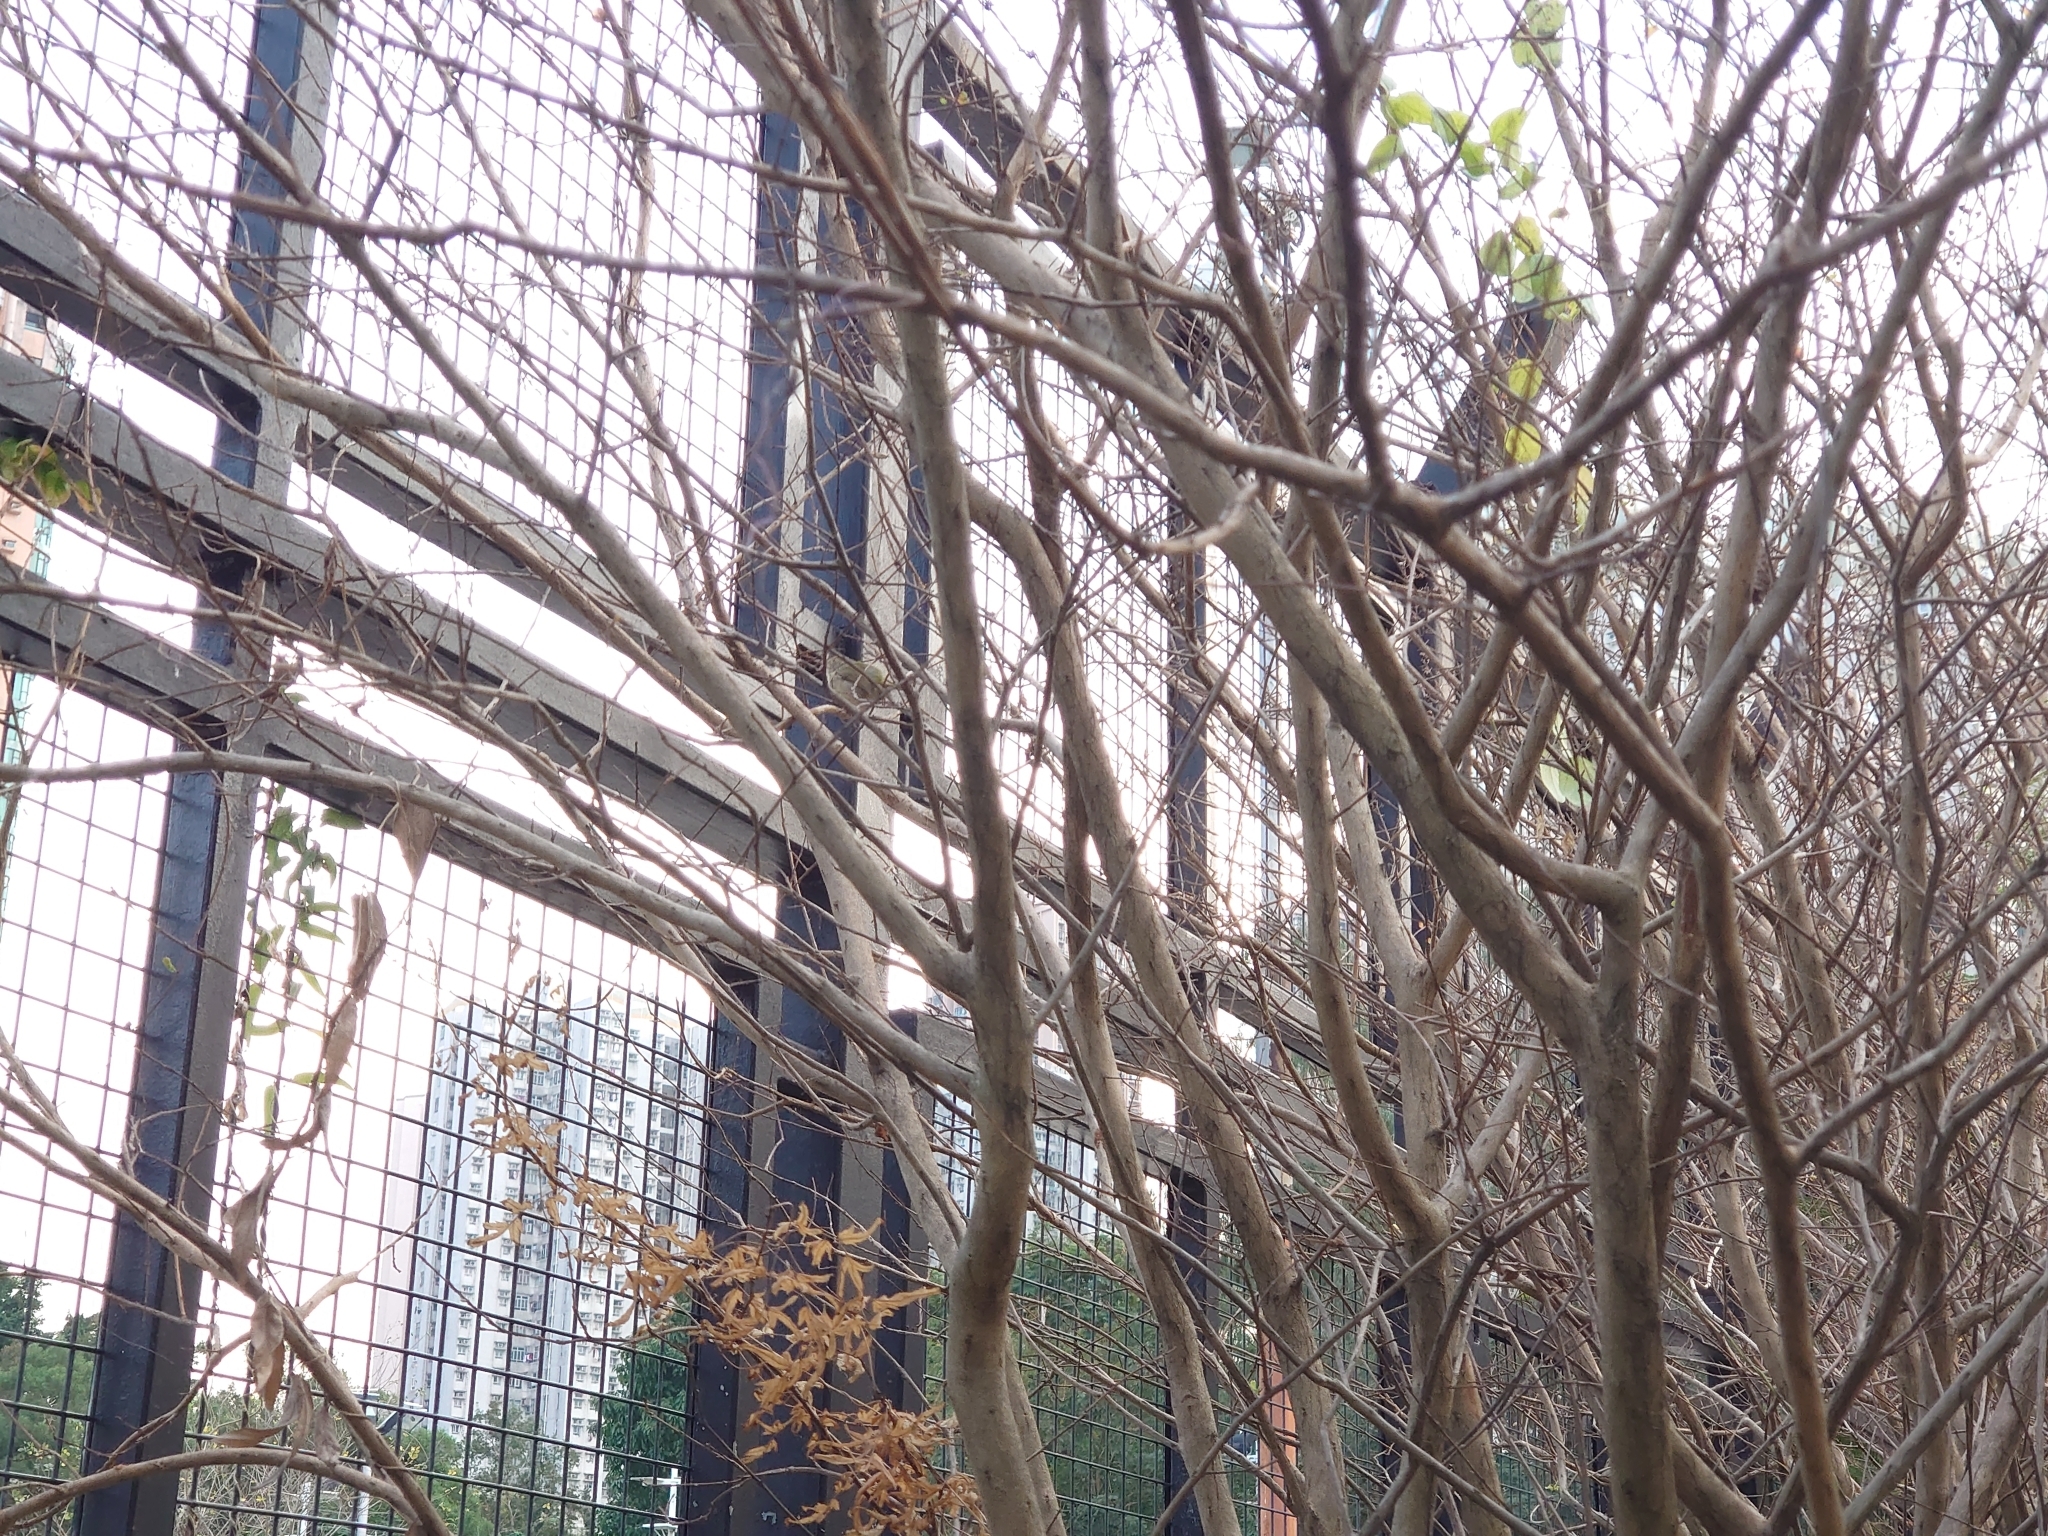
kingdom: Animalia
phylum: Chordata
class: Aves
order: Passeriformes
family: Passeridae
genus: Passer
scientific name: Passer montanus
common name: Eurasian tree sparrow
